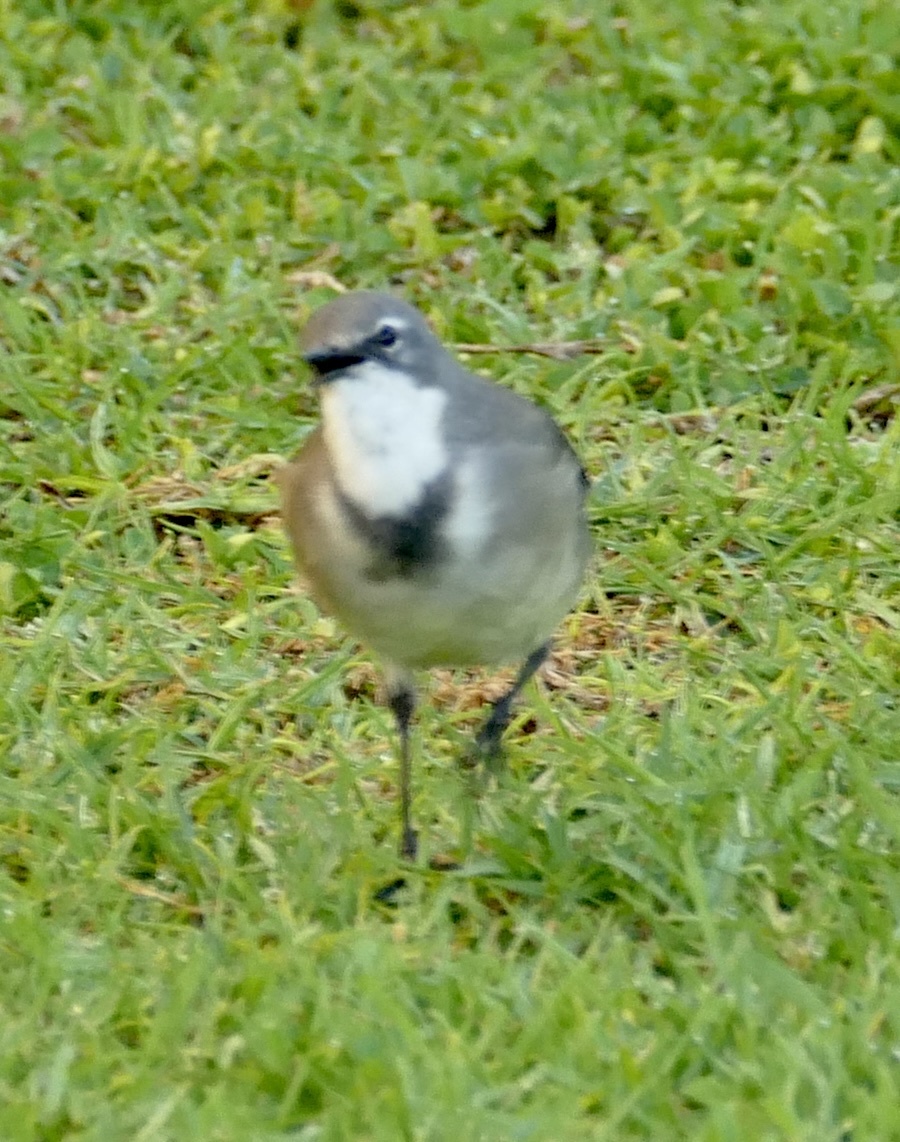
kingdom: Animalia
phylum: Chordata
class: Aves
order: Passeriformes
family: Motacillidae
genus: Motacilla
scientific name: Motacilla capensis
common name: Cape wagtail
